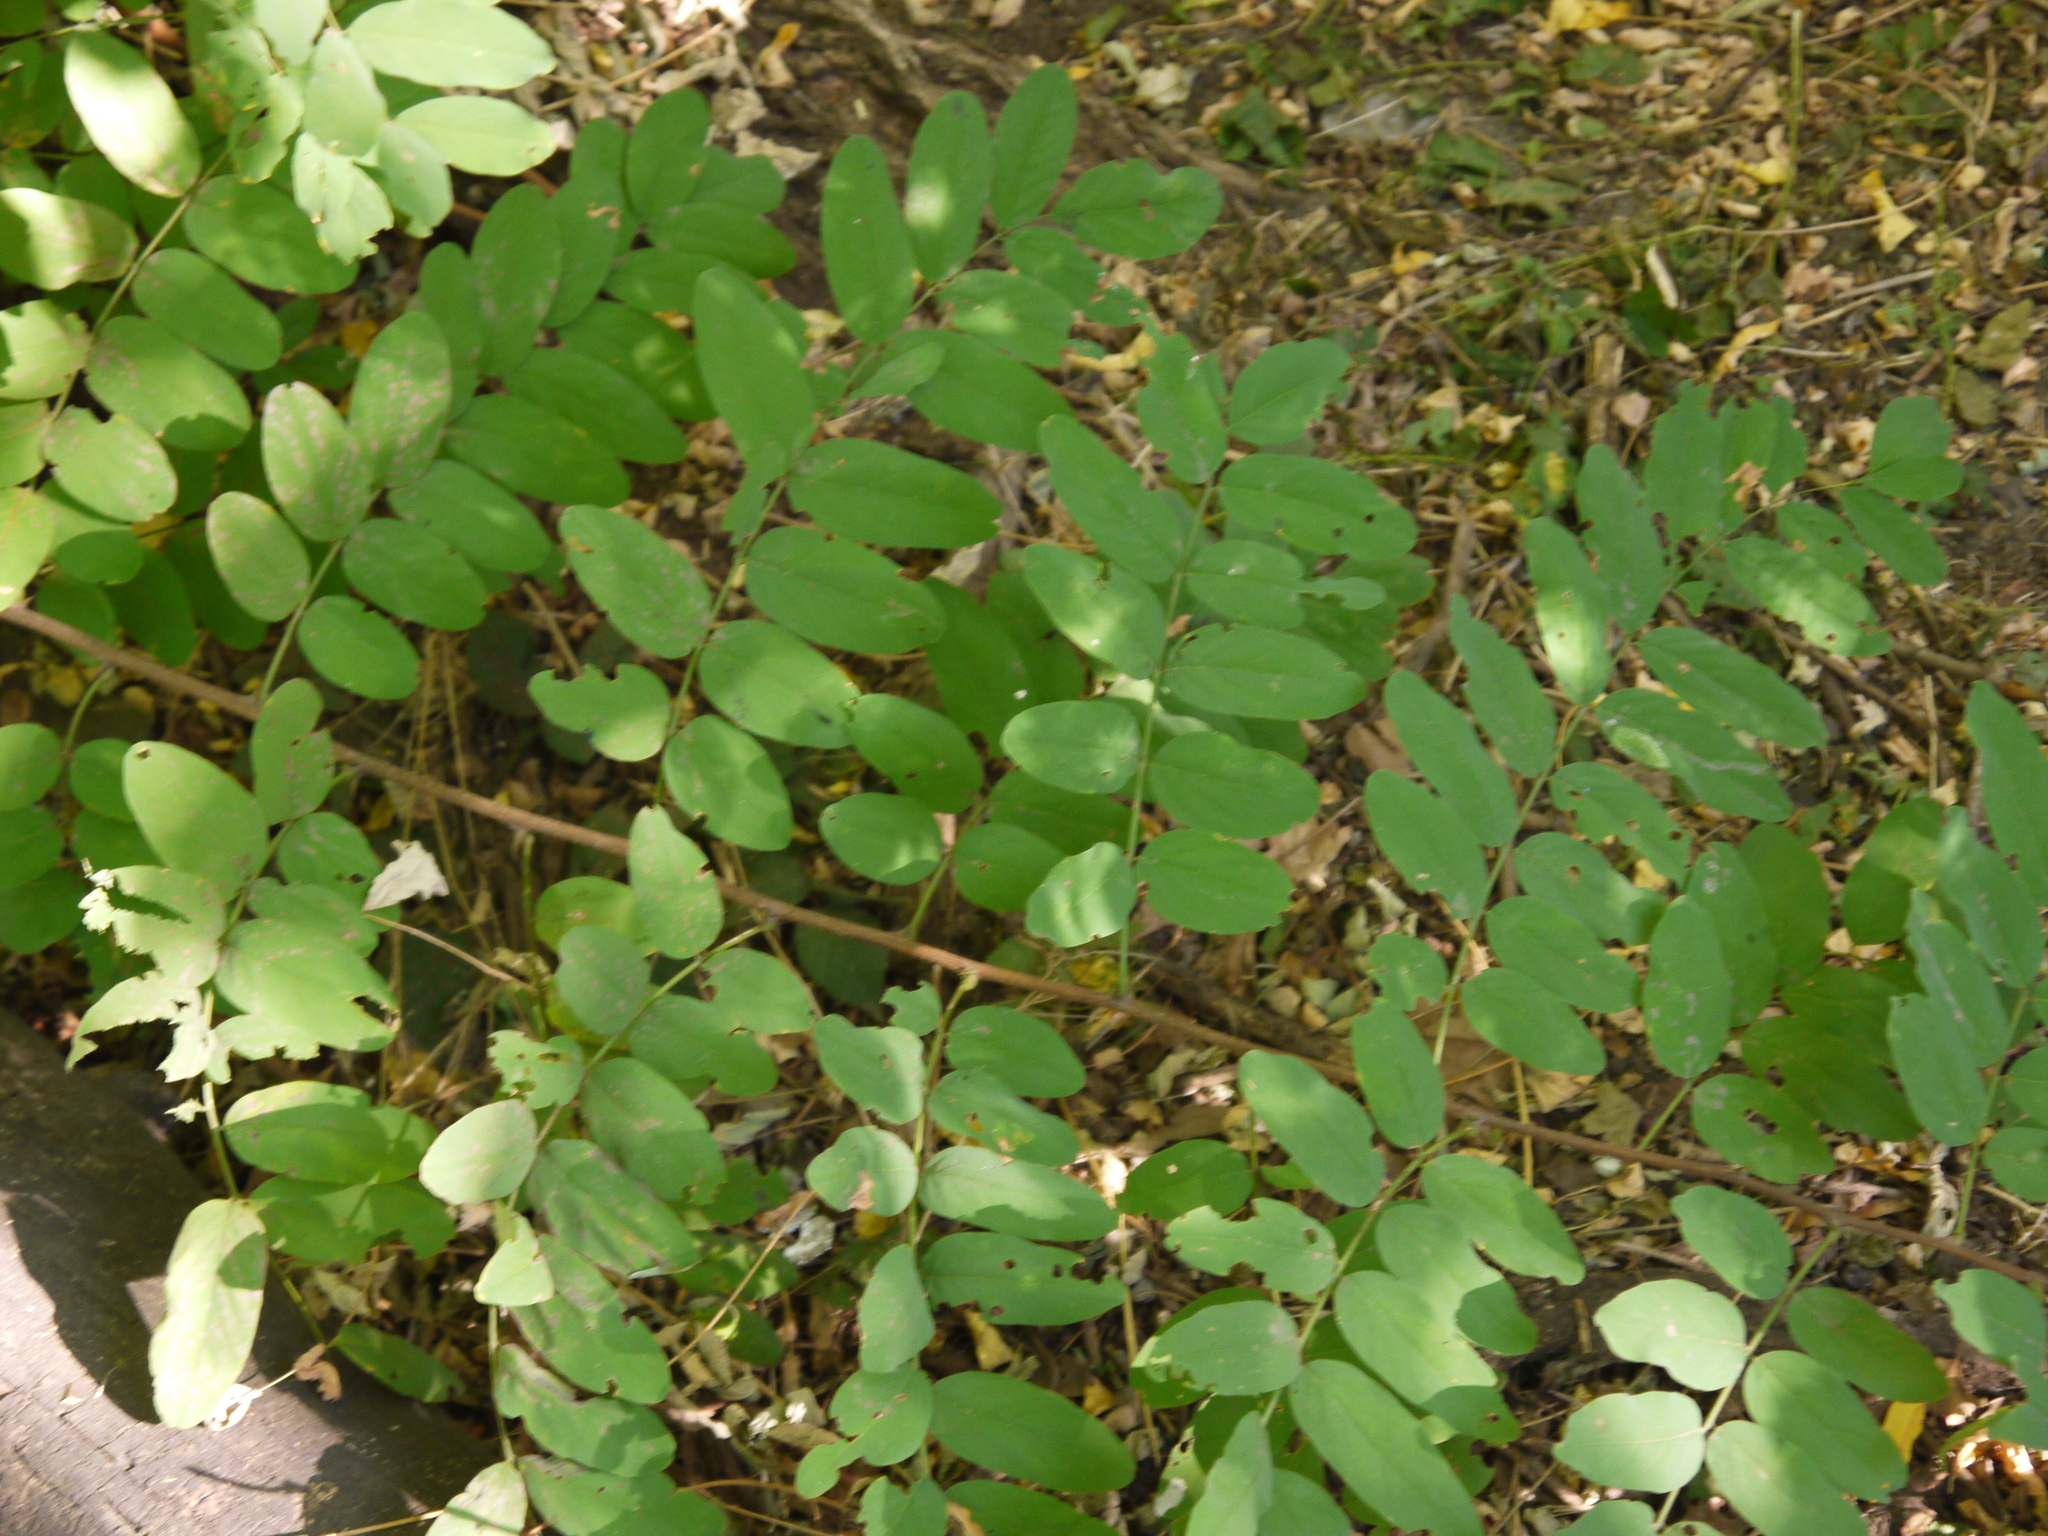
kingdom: Plantae
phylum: Tracheophyta
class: Magnoliopsida
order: Fabales
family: Fabaceae
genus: Robinia
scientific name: Robinia pseudoacacia
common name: Black locust
